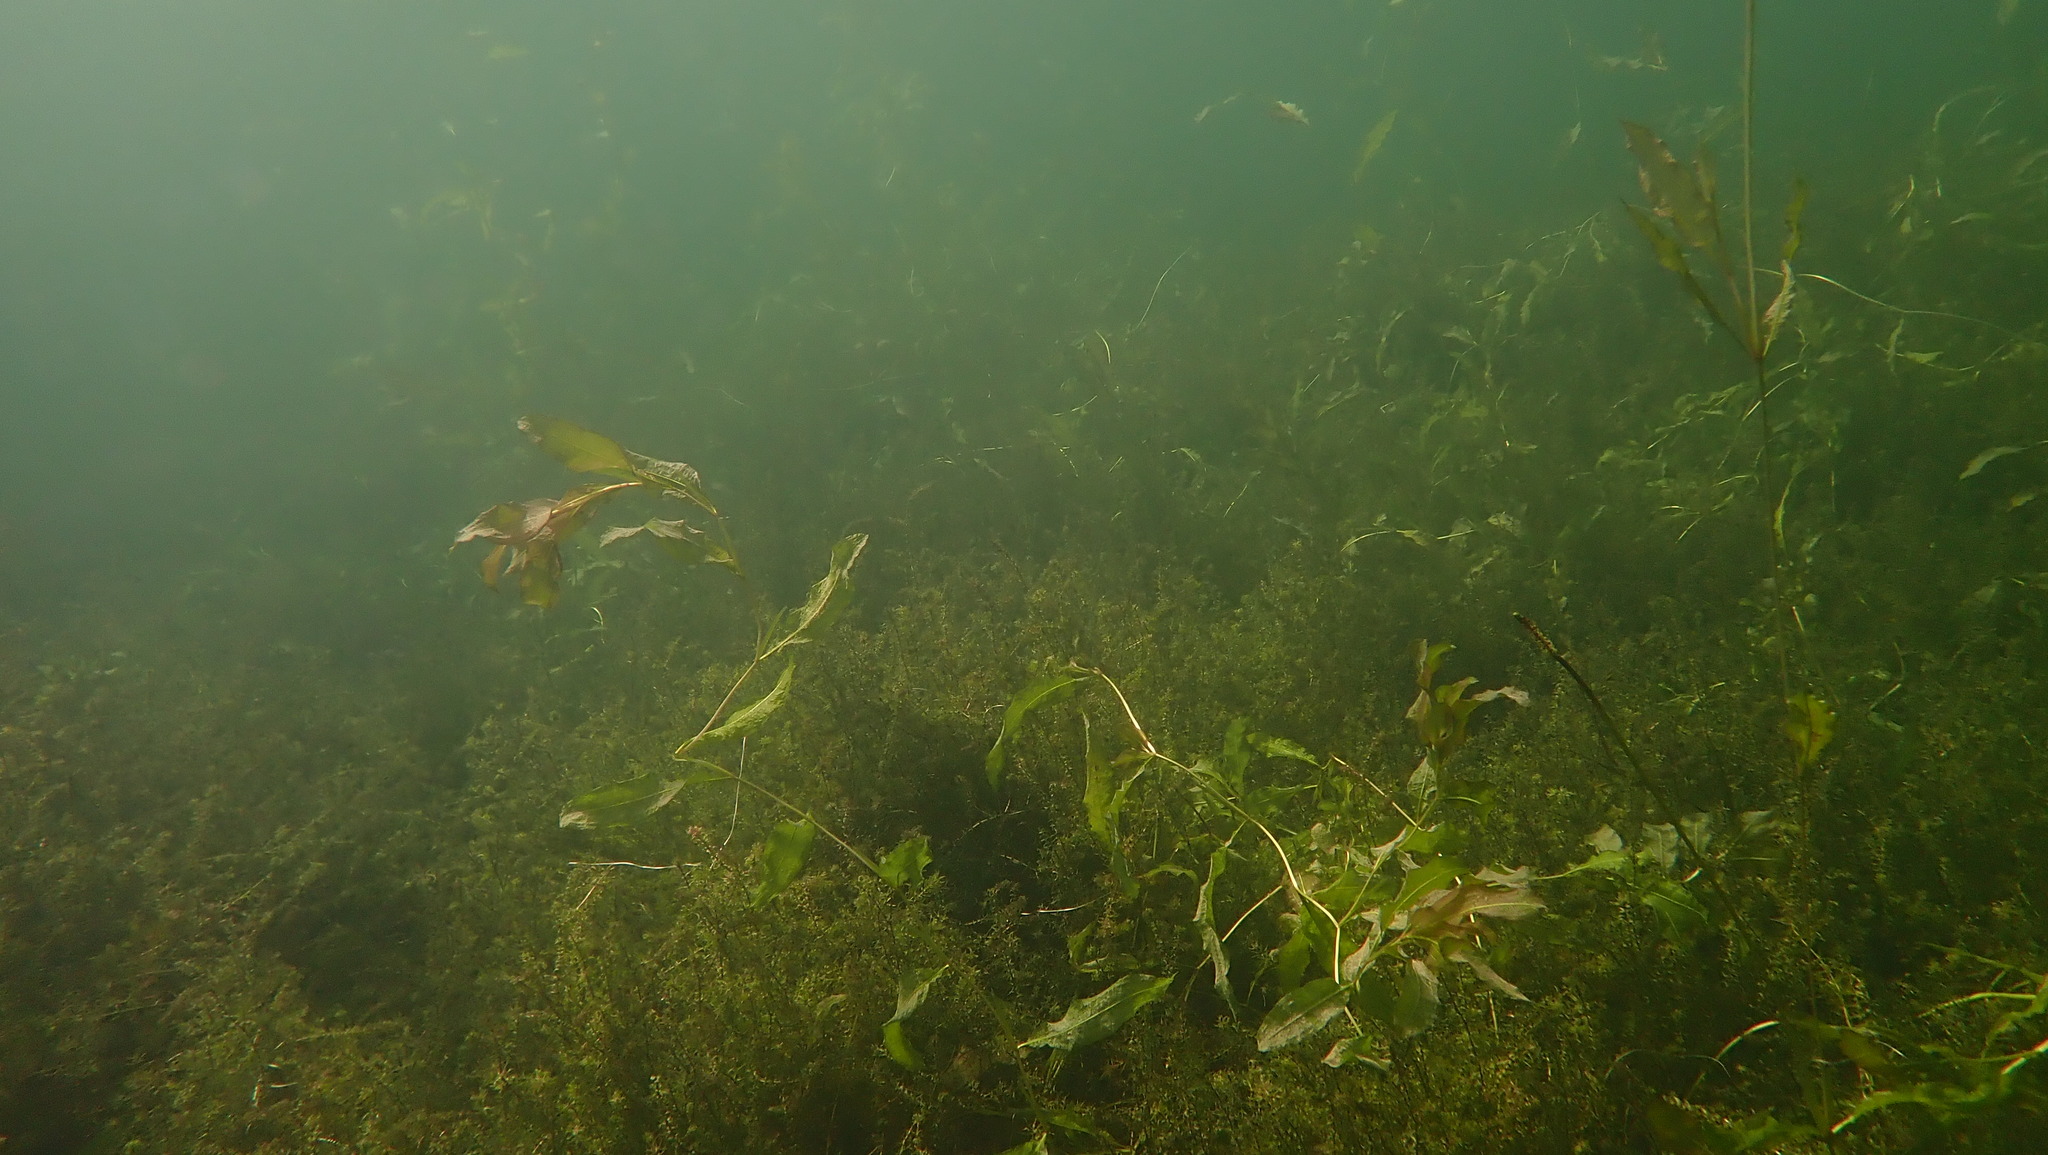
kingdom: Plantae
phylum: Tracheophyta
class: Liliopsida
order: Alismatales
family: Potamogetonaceae
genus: Potamogeton
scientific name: Potamogeton lucens
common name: Shining pondweed
